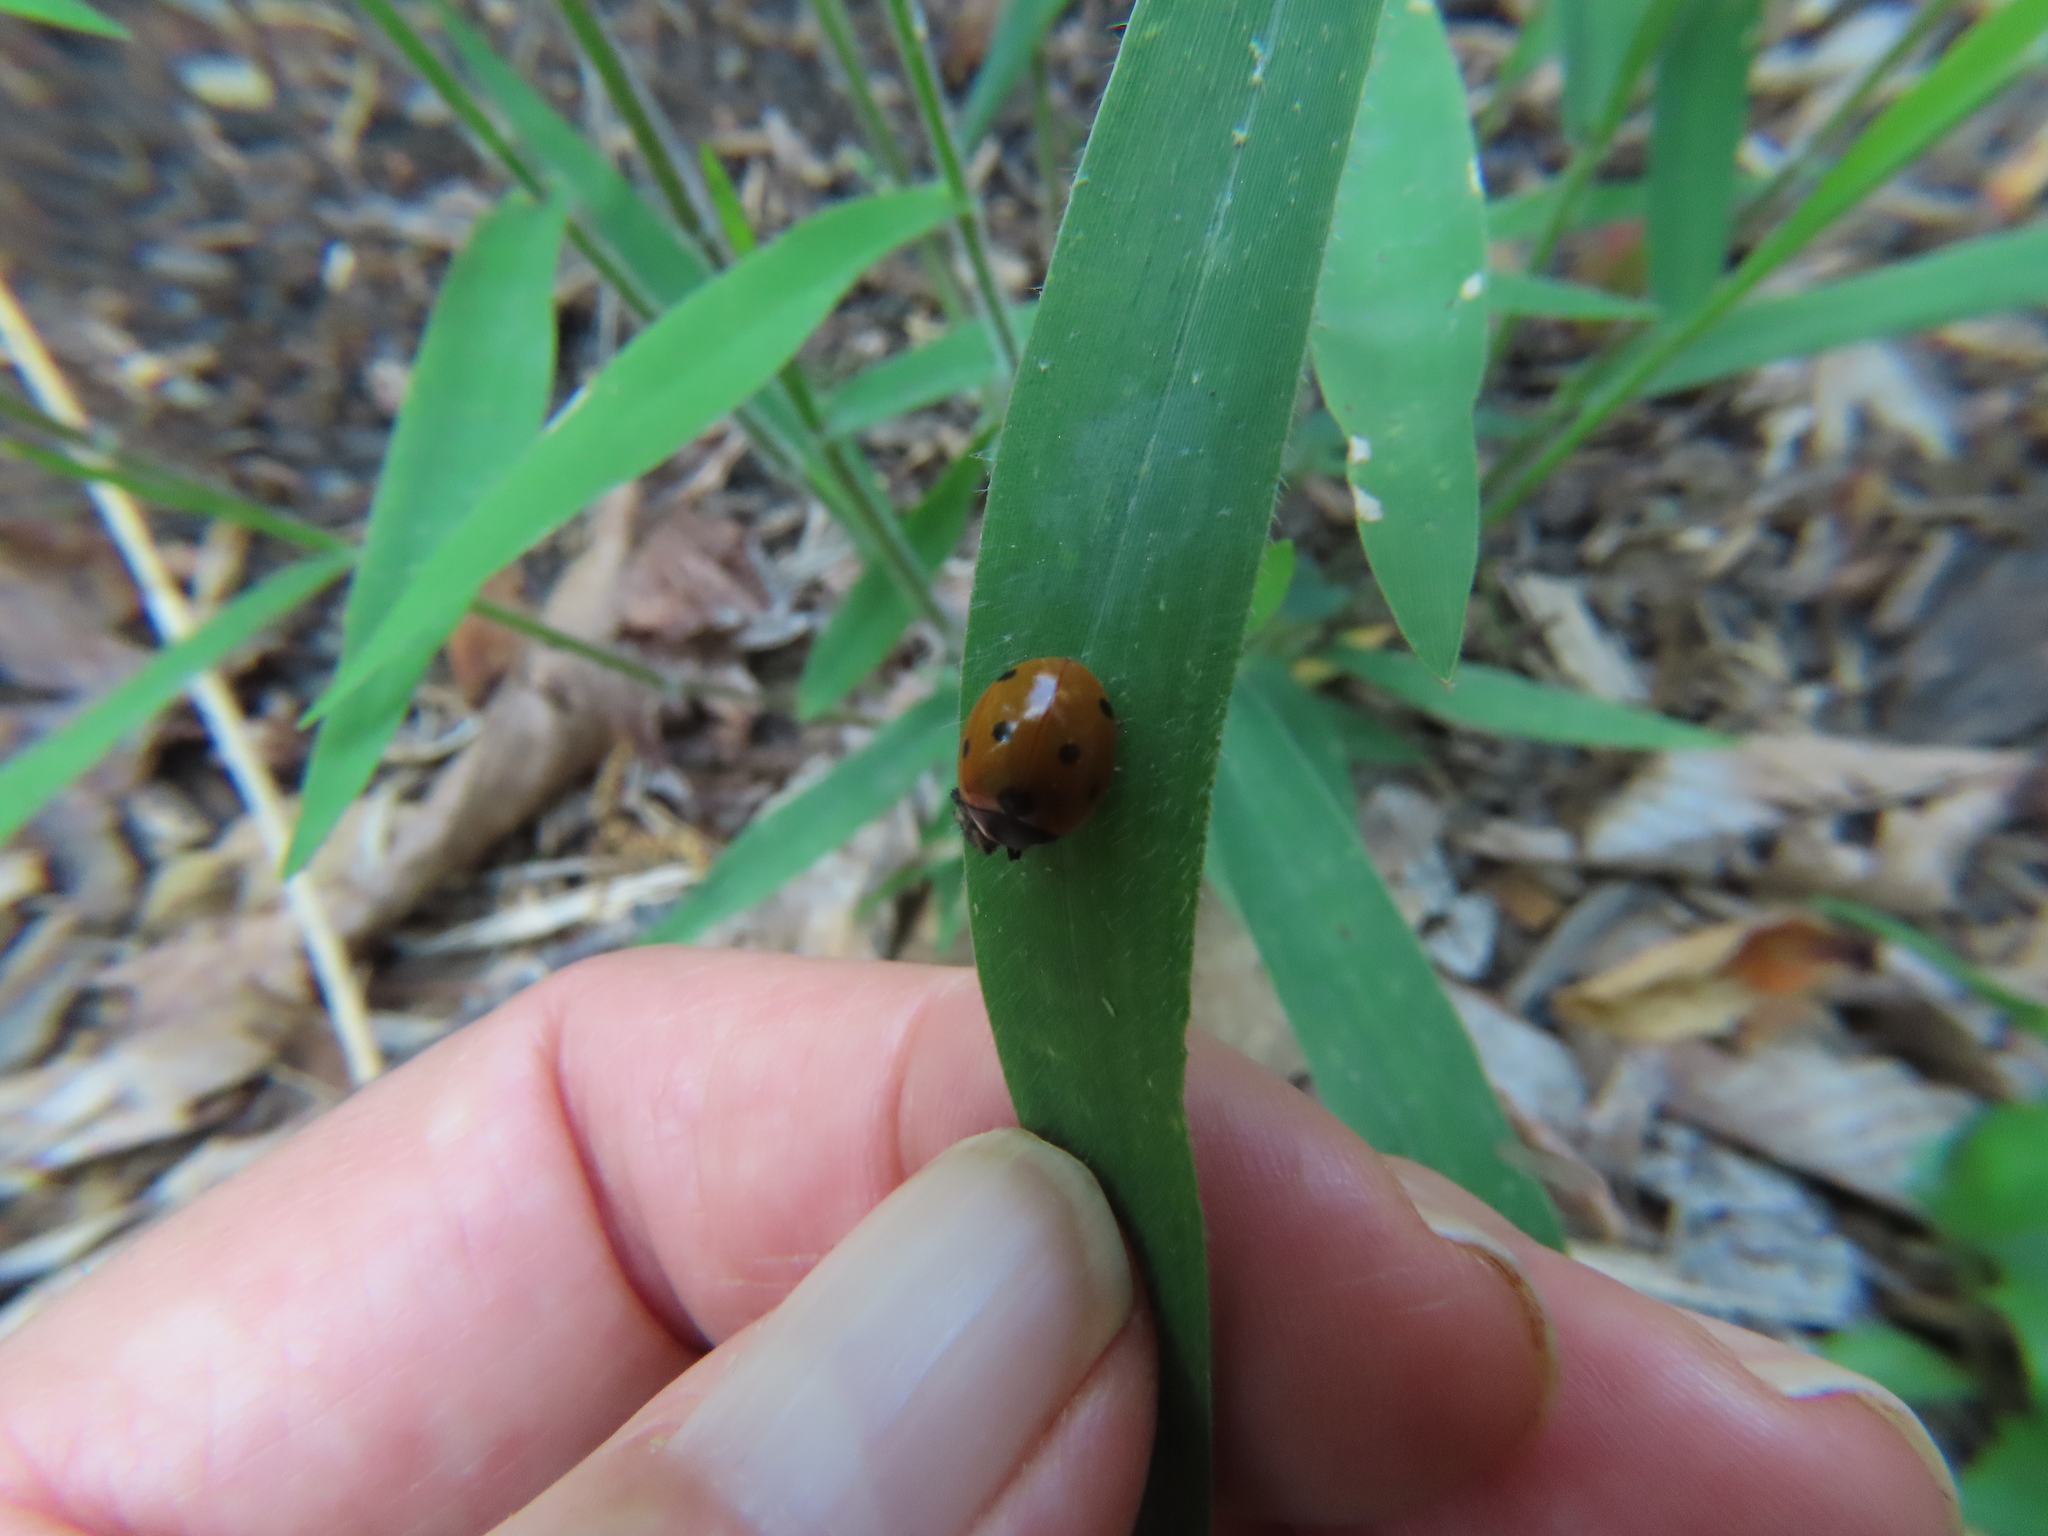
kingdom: Animalia
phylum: Arthropoda
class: Insecta
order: Coleoptera
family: Coccinellidae
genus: Coccinella
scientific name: Coccinella septempunctata
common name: Sevenspotted lady beetle
